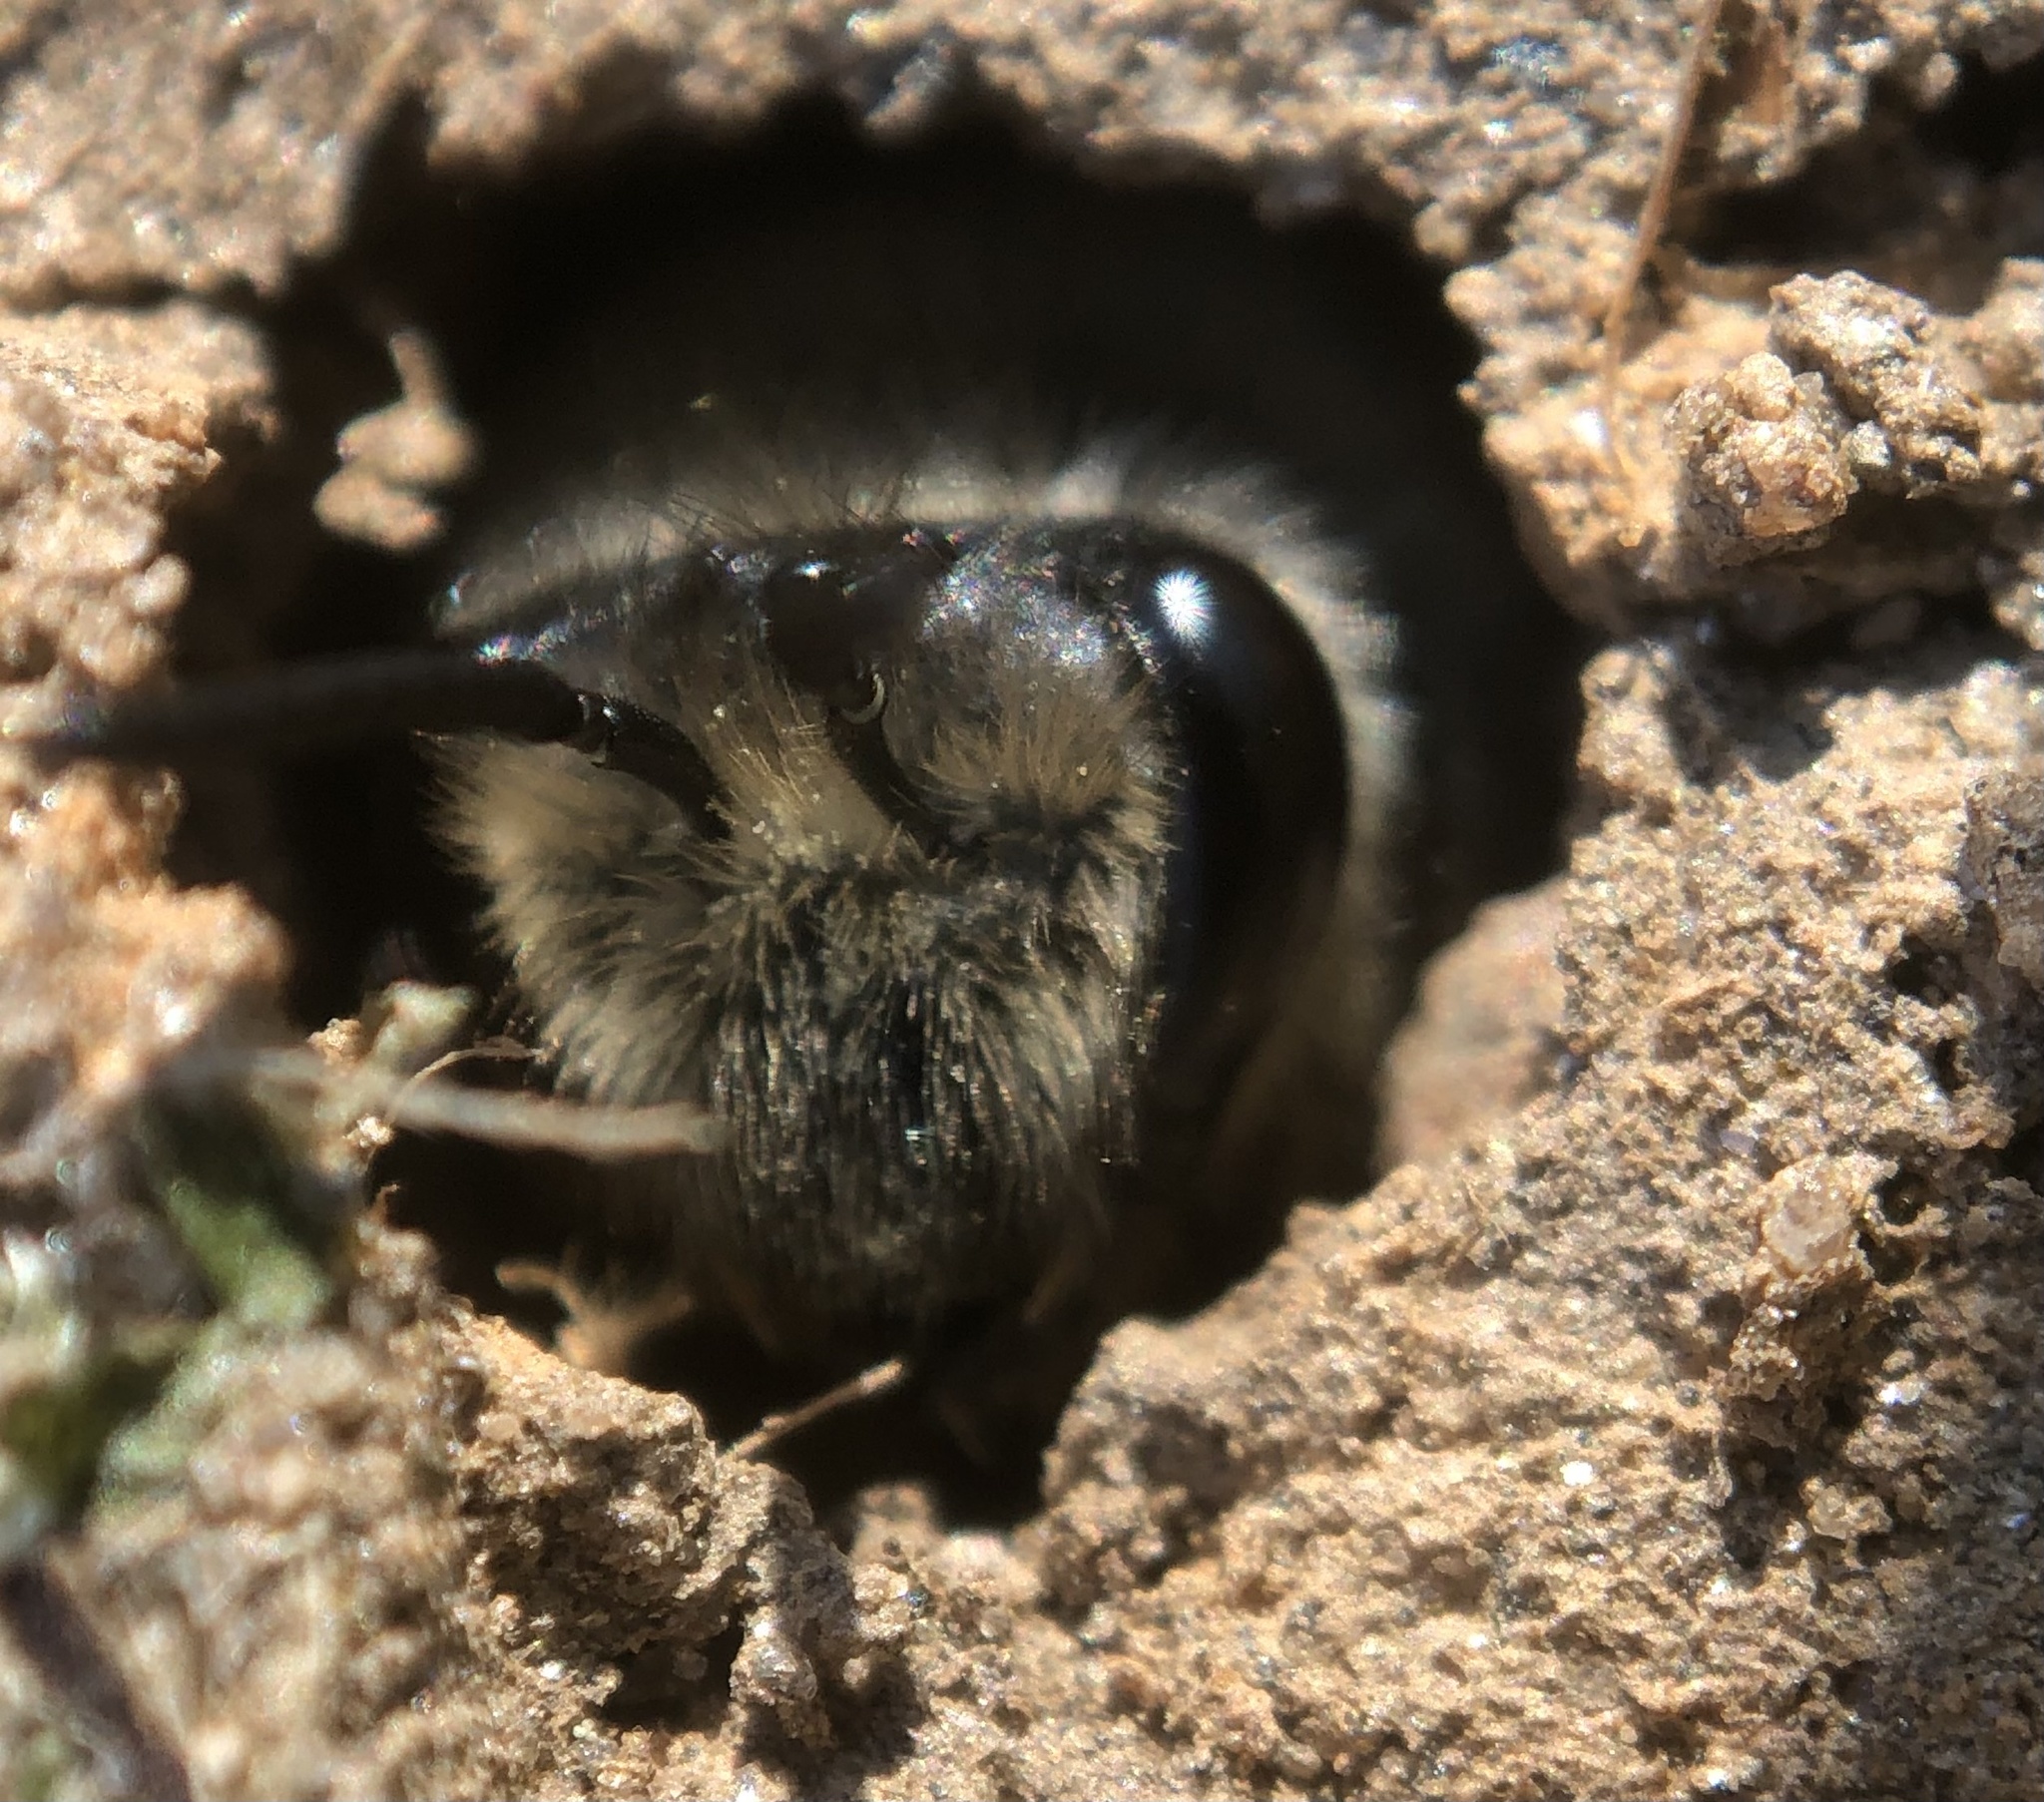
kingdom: Animalia
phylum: Arthropoda
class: Insecta
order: Hymenoptera
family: Colletidae
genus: Colletes
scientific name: Colletes inaequalis
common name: Unequal cellophane bee
